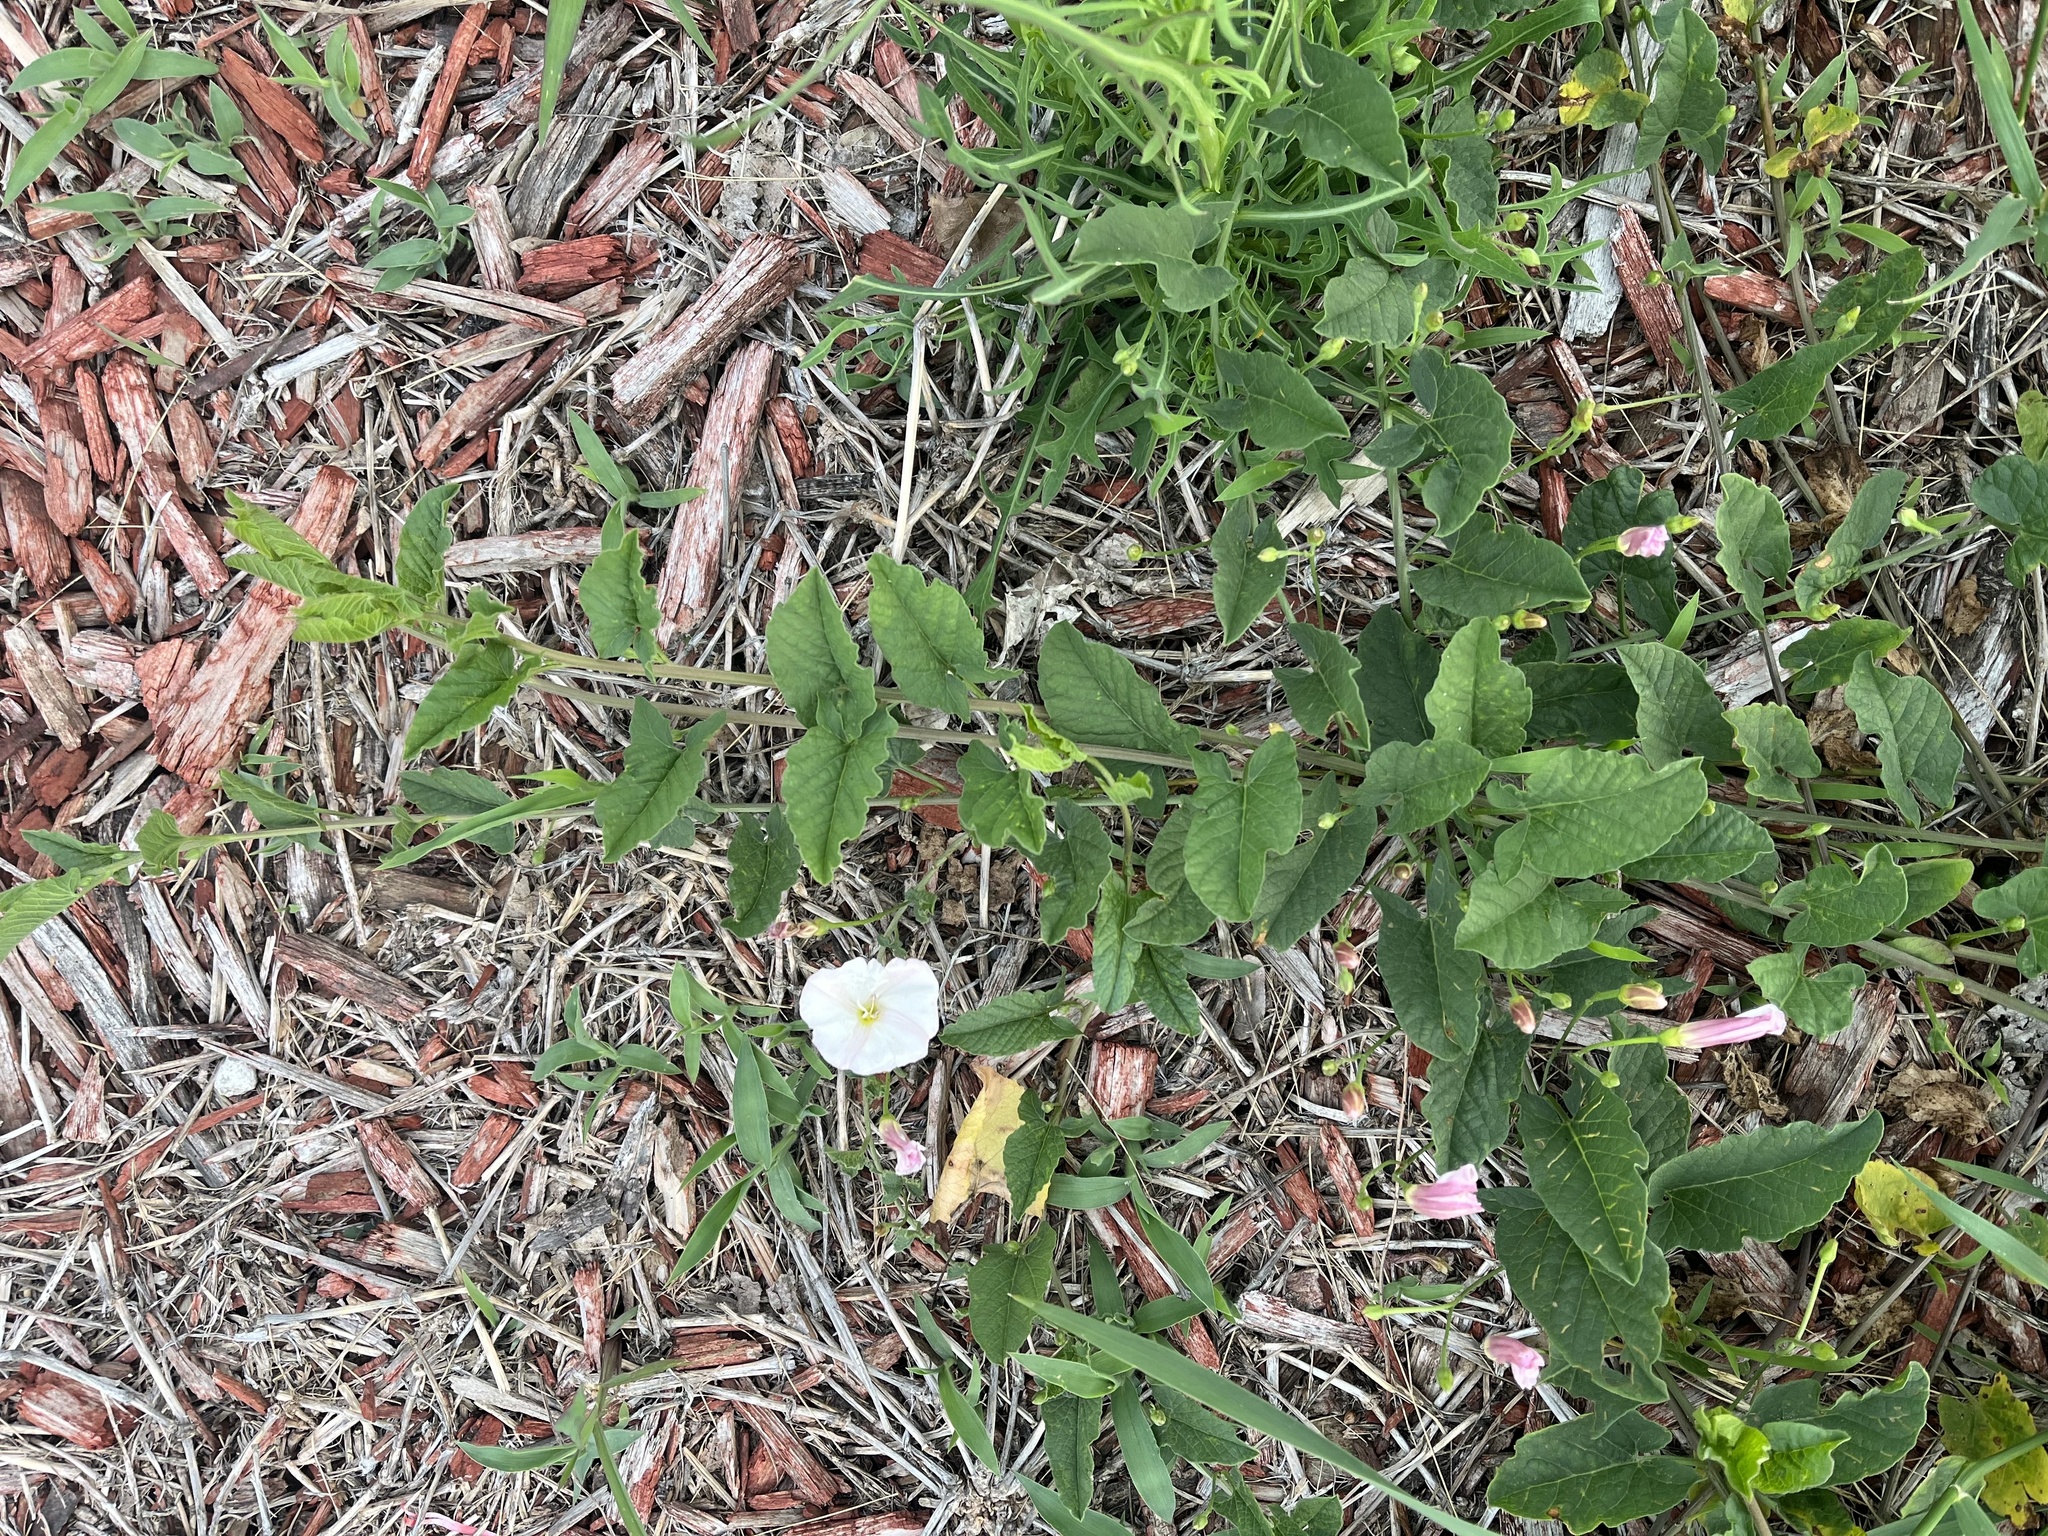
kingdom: Plantae
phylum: Tracheophyta
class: Magnoliopsida
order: Solanales
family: Convolvulaceae
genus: Convolvulus
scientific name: Convolvulus arvensis
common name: Field bindweed
